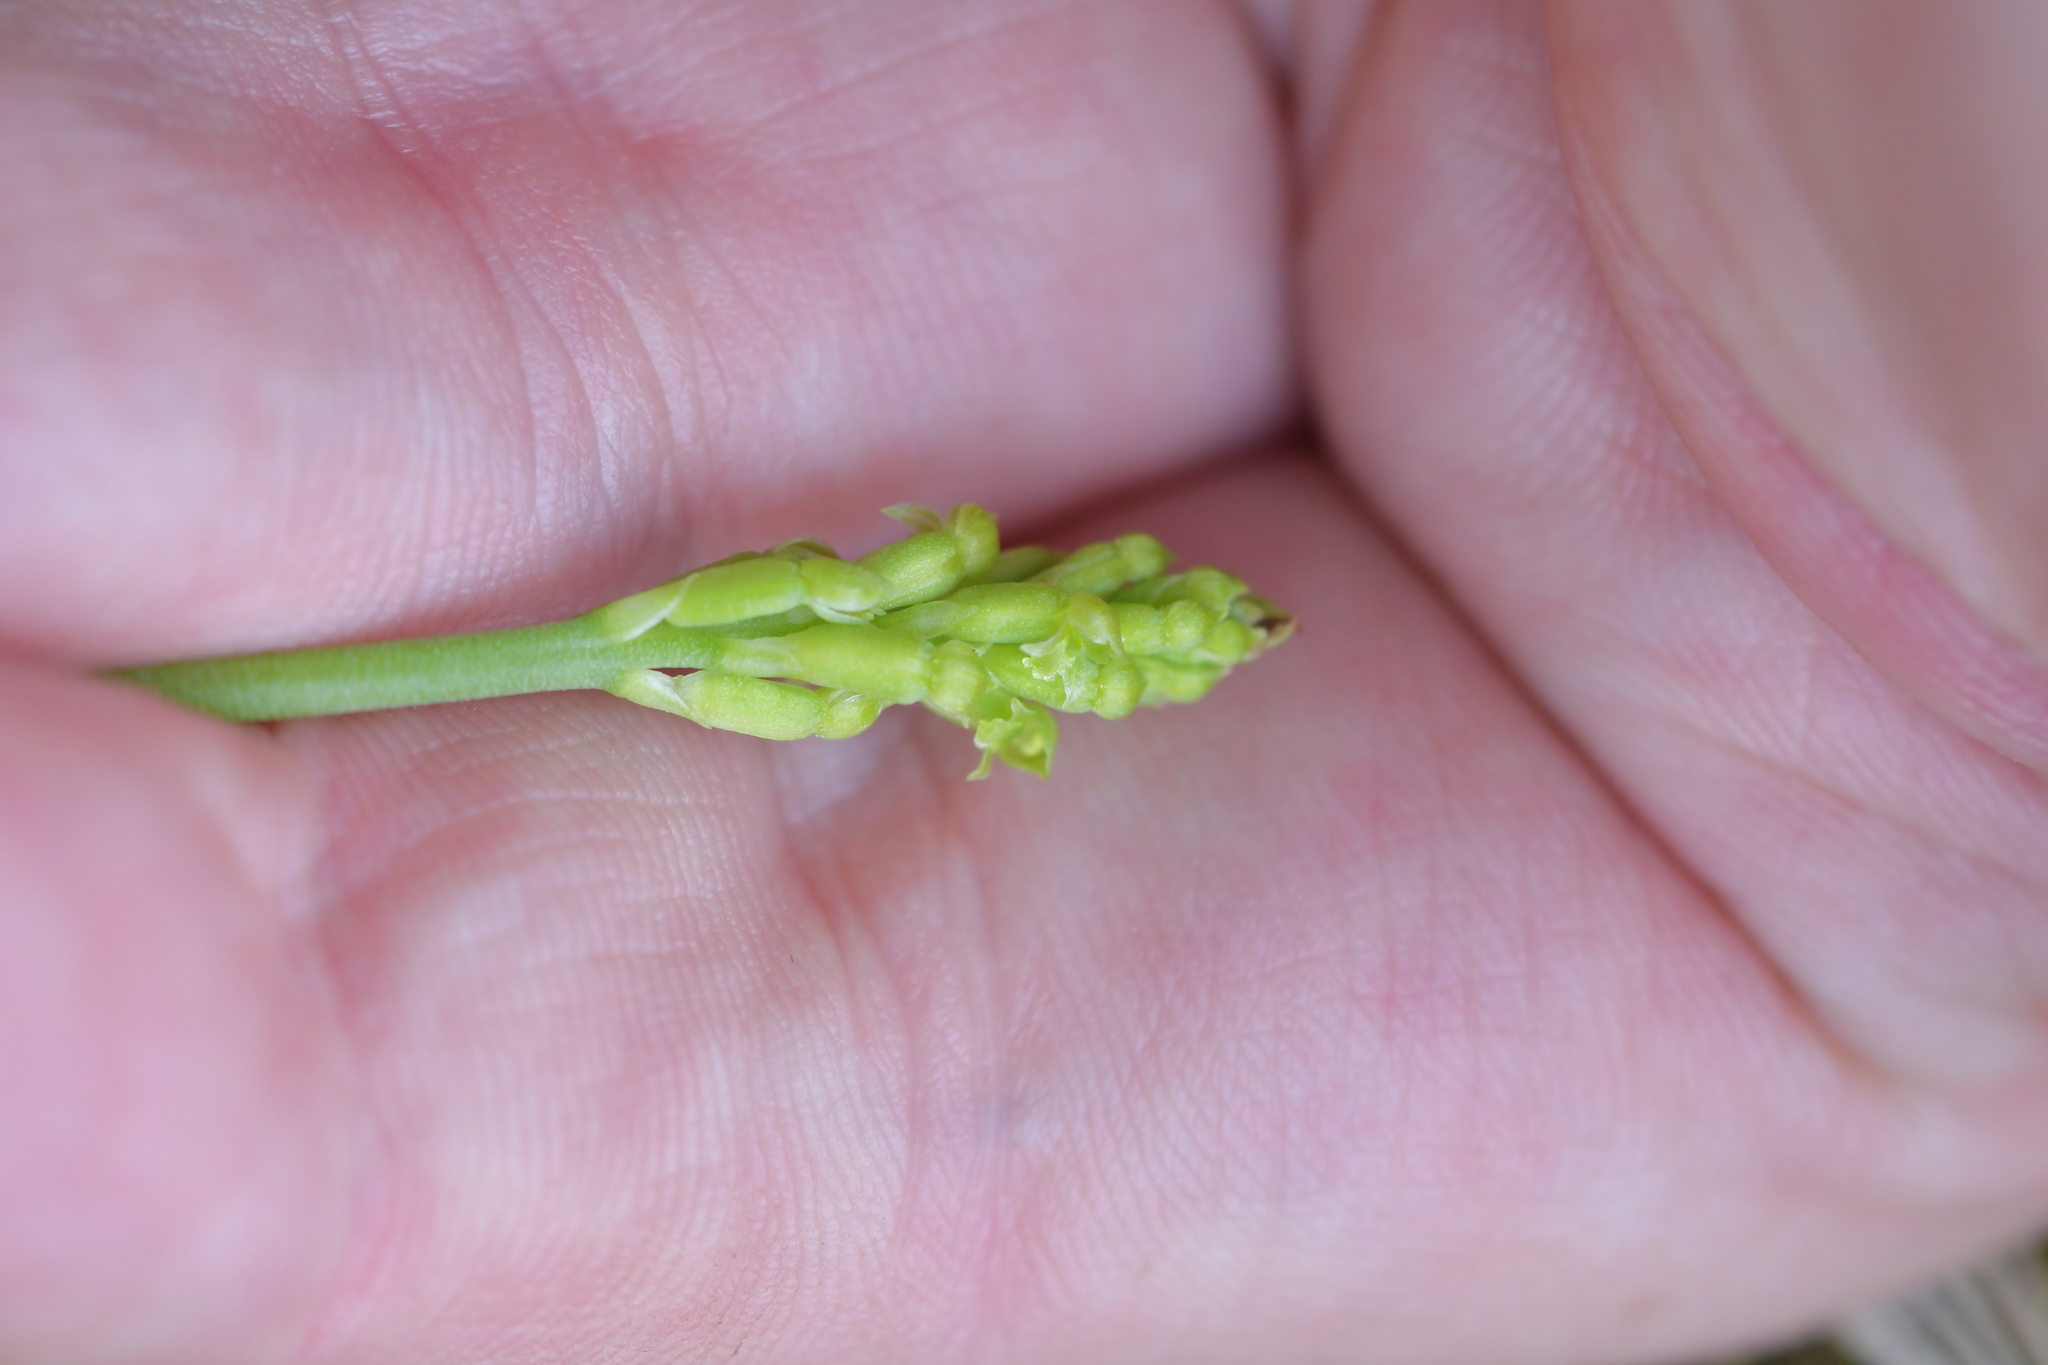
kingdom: Plantae
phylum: Tracheophyta
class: Liliopsida
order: Asparagales
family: Orchidaceae
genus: Microtis
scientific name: Microtis unifolia
